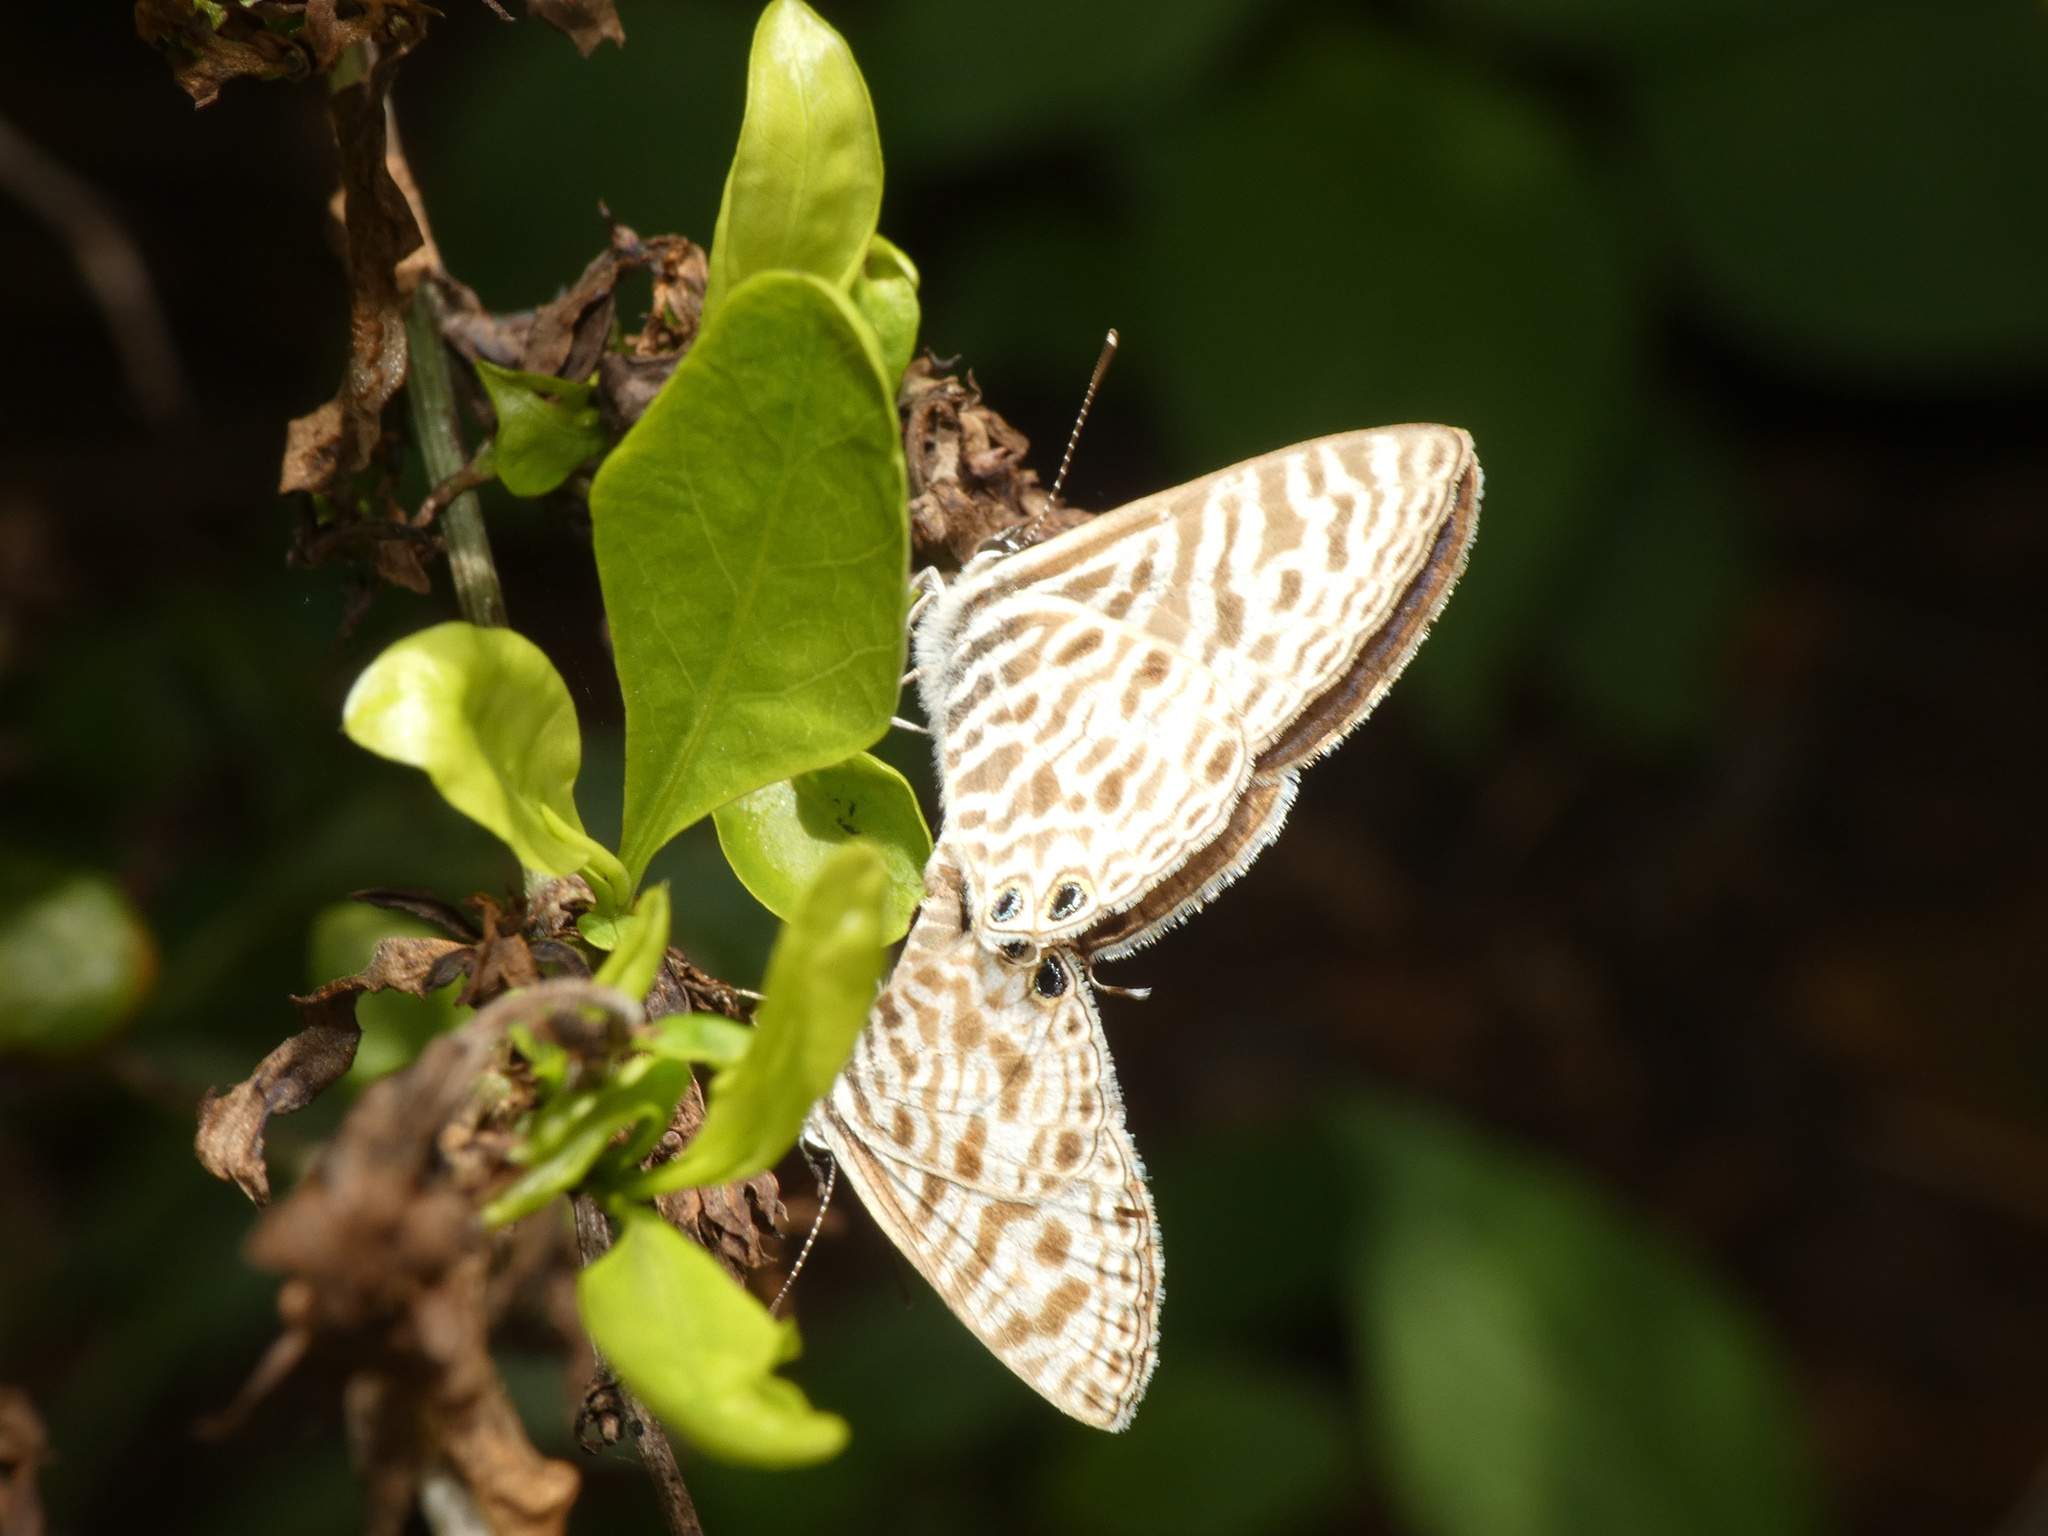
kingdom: Animalia
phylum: Arthropoda
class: Insecta
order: Lepidoptera
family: Lycaenidae
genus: Leptotes
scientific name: Leptotes
